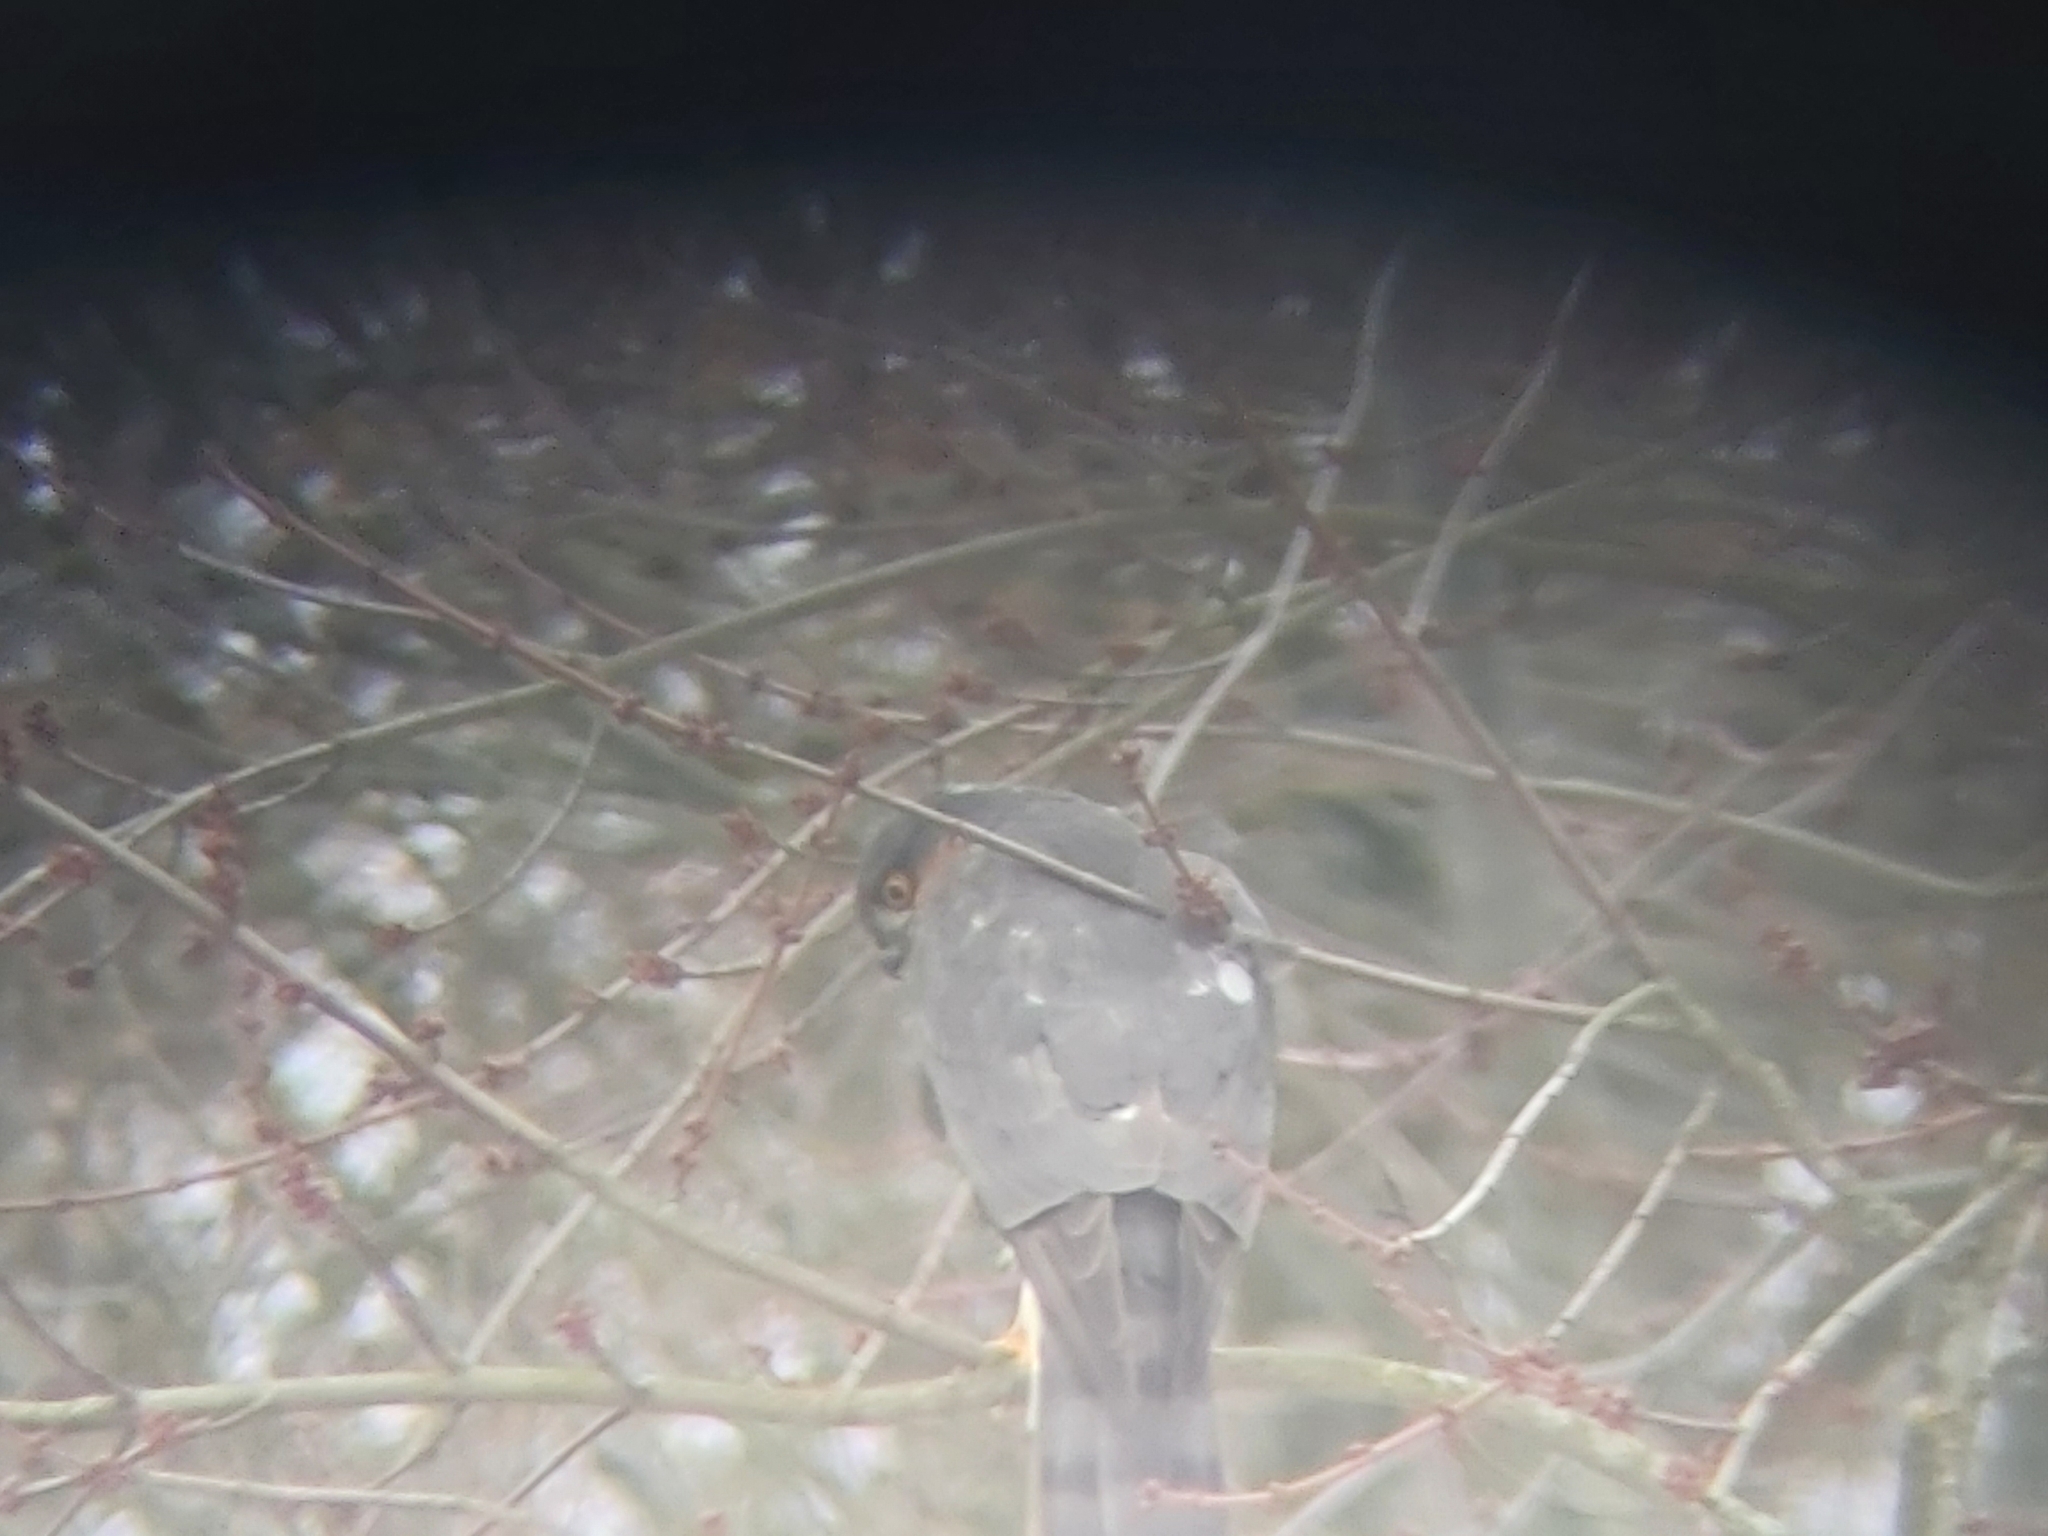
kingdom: Animalia
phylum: Chordata
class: Aves
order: Accipitriformes
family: Accipitridae
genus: Accipiter
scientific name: Accipiter nisus
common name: Eurasian sparrowhawk
